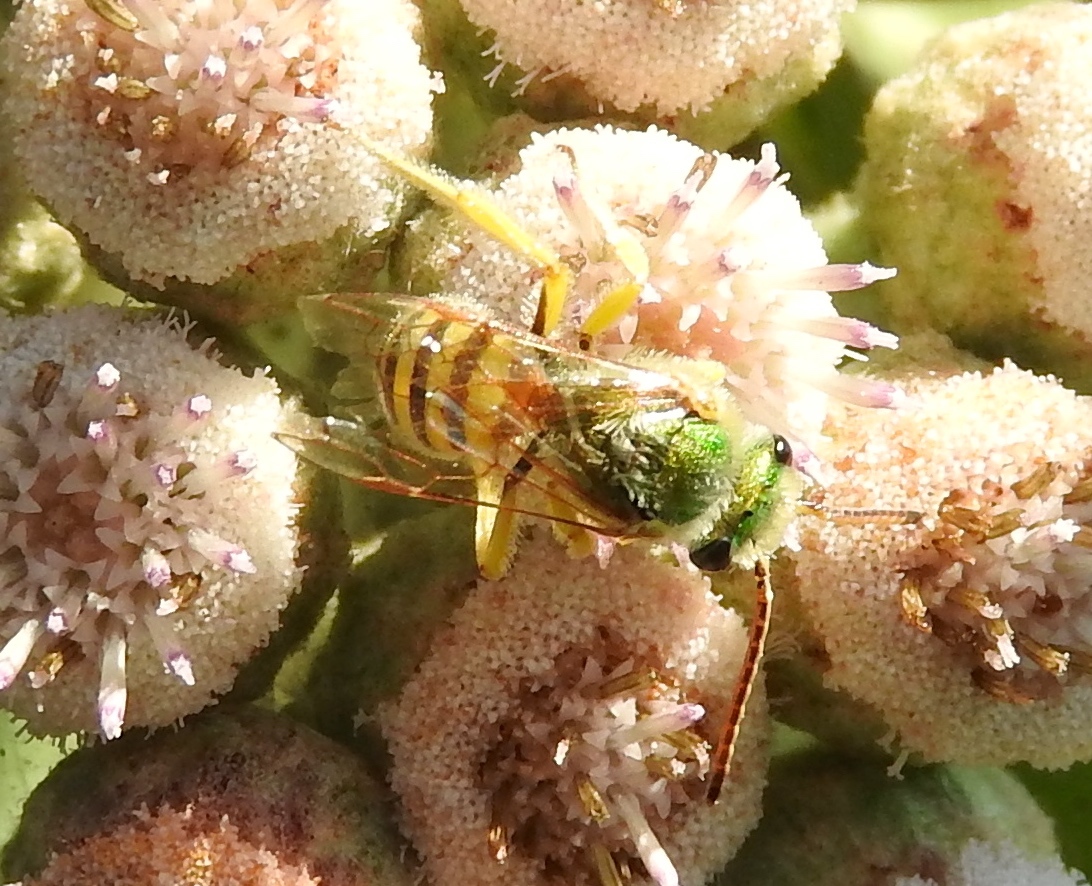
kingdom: Animalia
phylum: Arthropoda
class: Insecta
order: Hymenoptera
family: Halictidae
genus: Agapostemon
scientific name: Agapostemon
